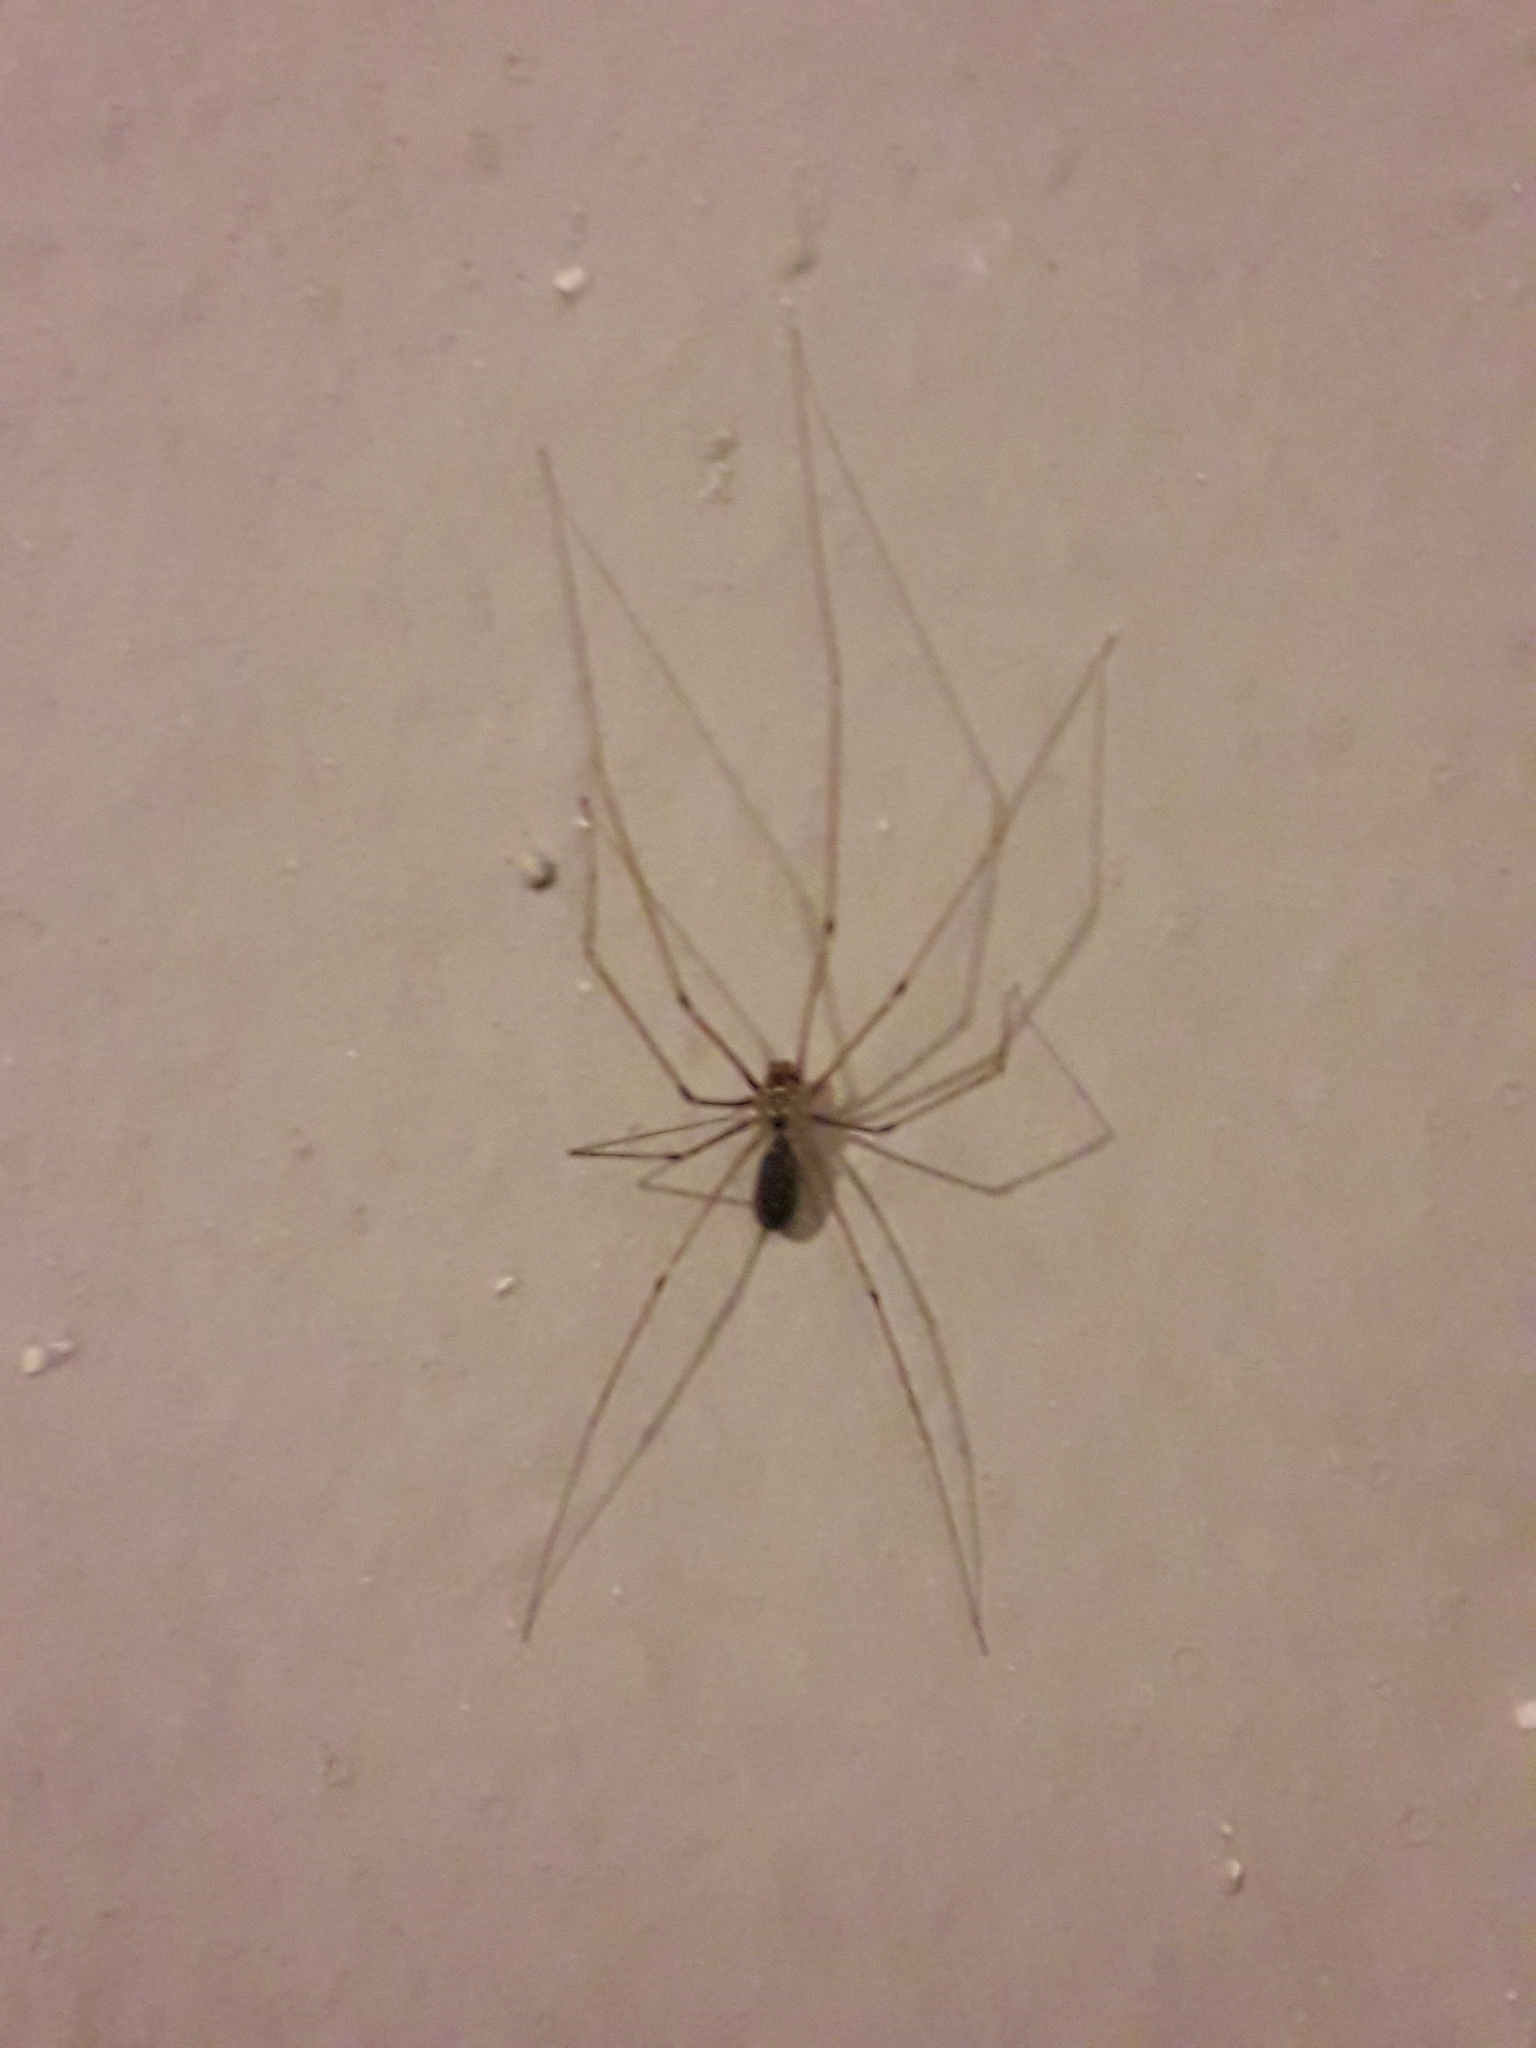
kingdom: Animalia
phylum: Arthropoda
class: Arachnida
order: Araneae
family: Pholcidae
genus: Pholcus
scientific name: Pholcus phalangioides
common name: Longbodied cellar spider
